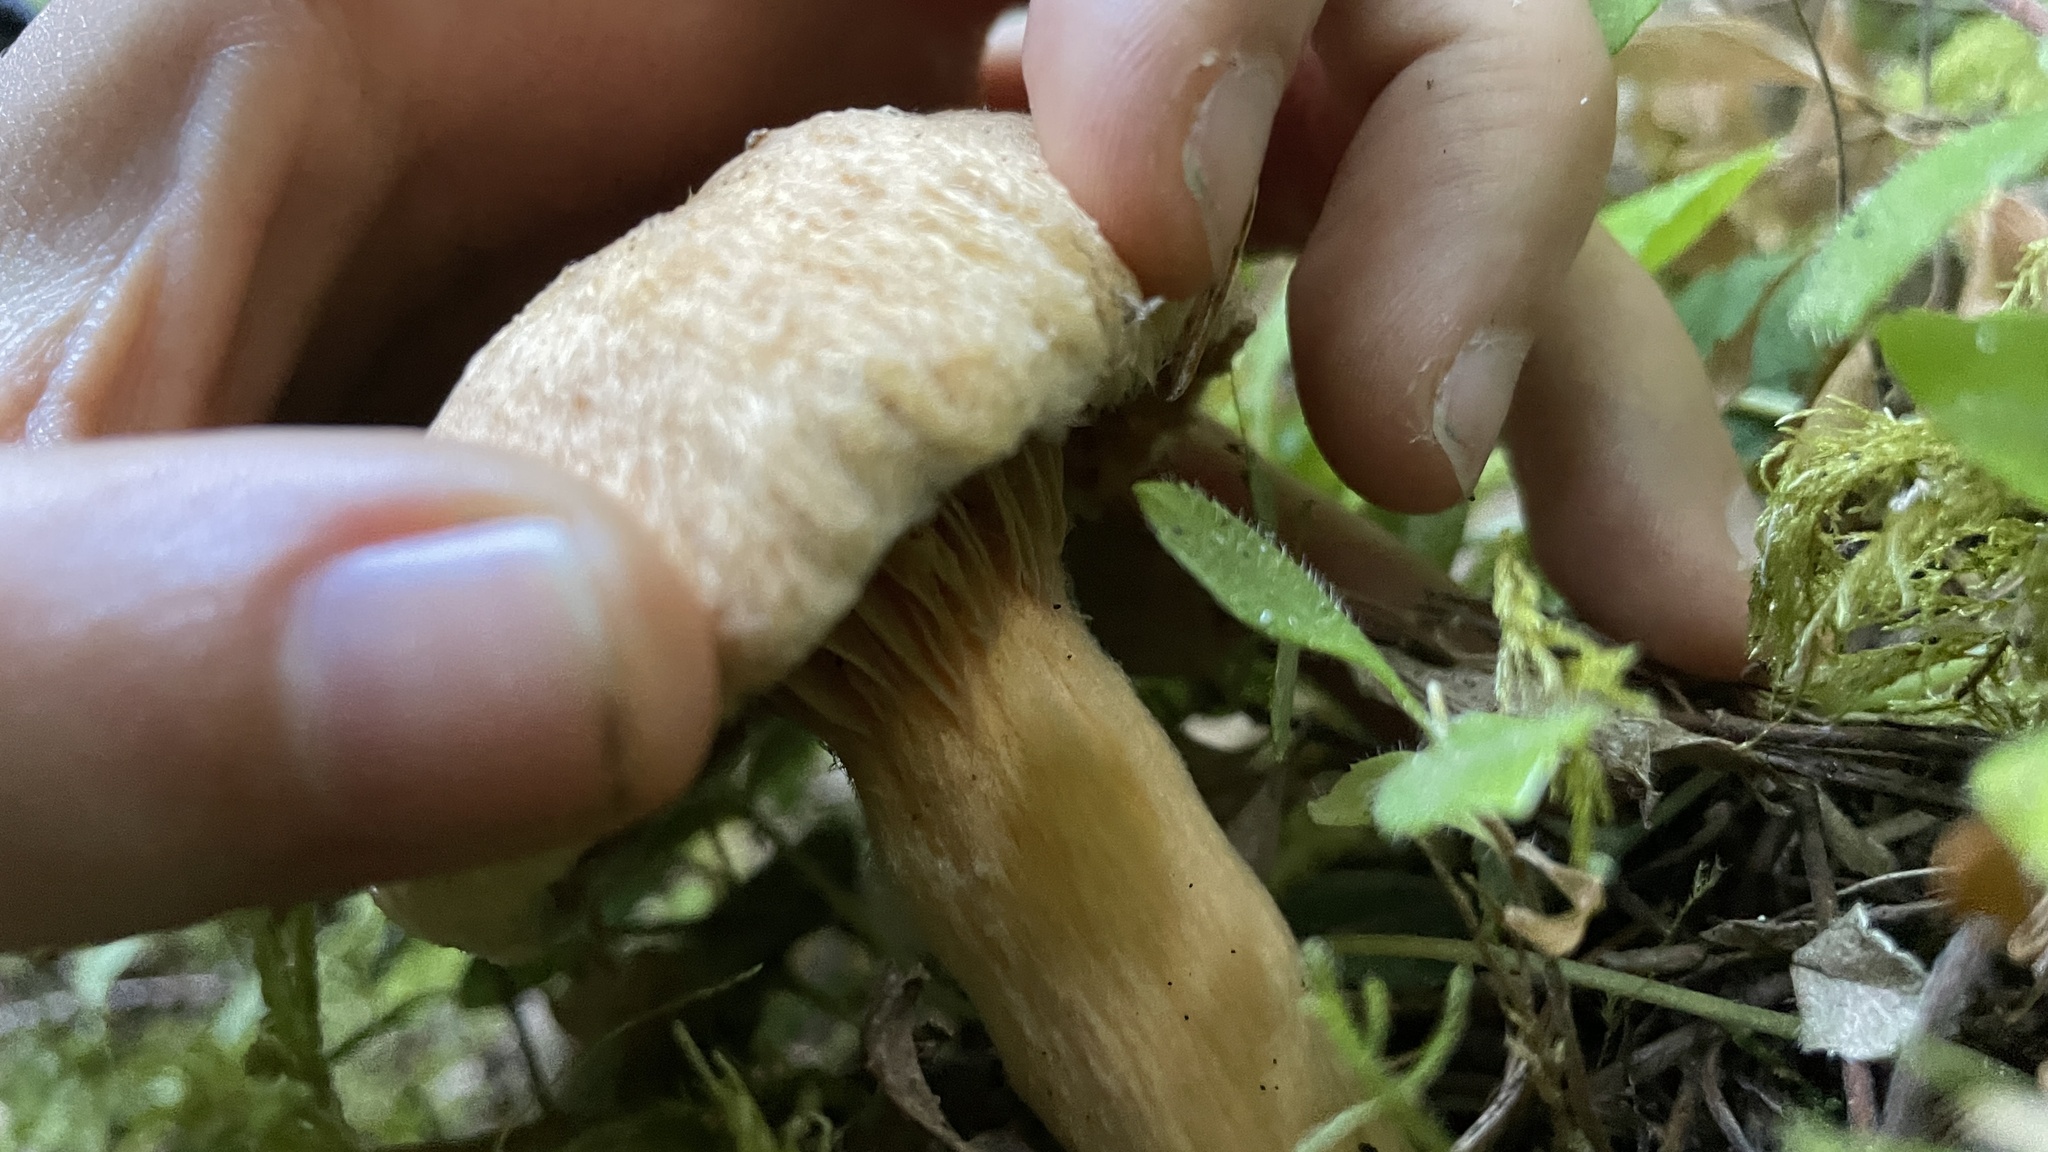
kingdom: Fungi
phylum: Basidiomycota
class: Agaricomycetes
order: Boletales
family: Gomphidiaceae
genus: Chroogomphus
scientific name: Chroogomphus tomentosus
